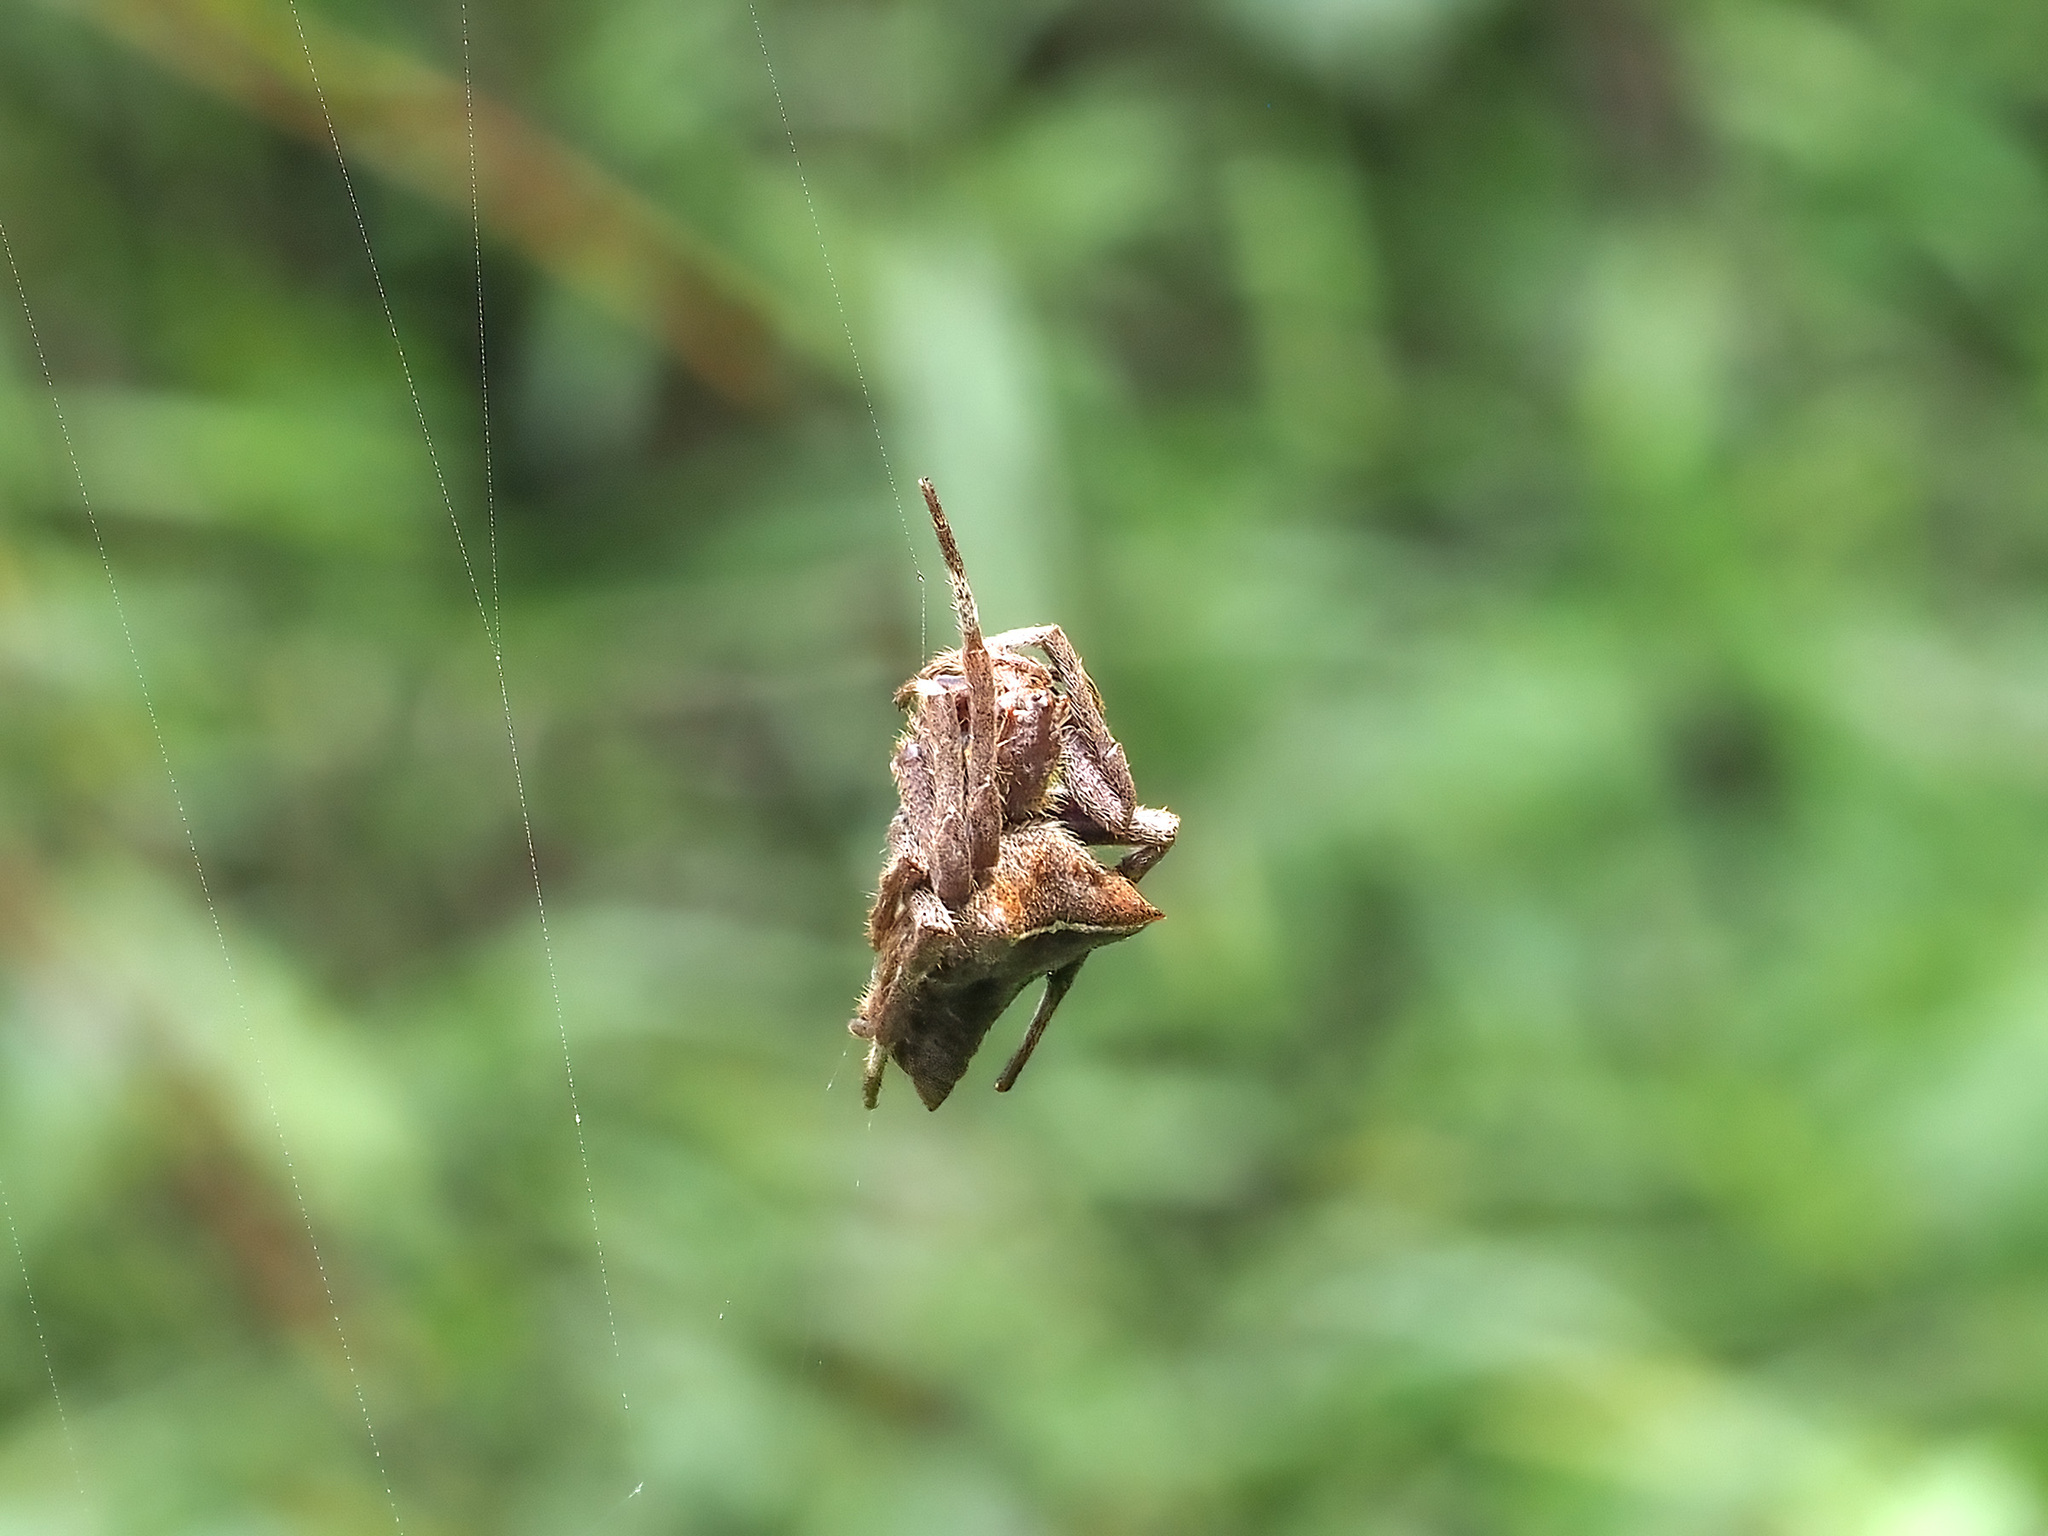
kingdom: Animalia
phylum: Arthropoda
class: Arachnida
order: Araneae
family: Araneidae
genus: Parawixia
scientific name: Parawixia dehaani
